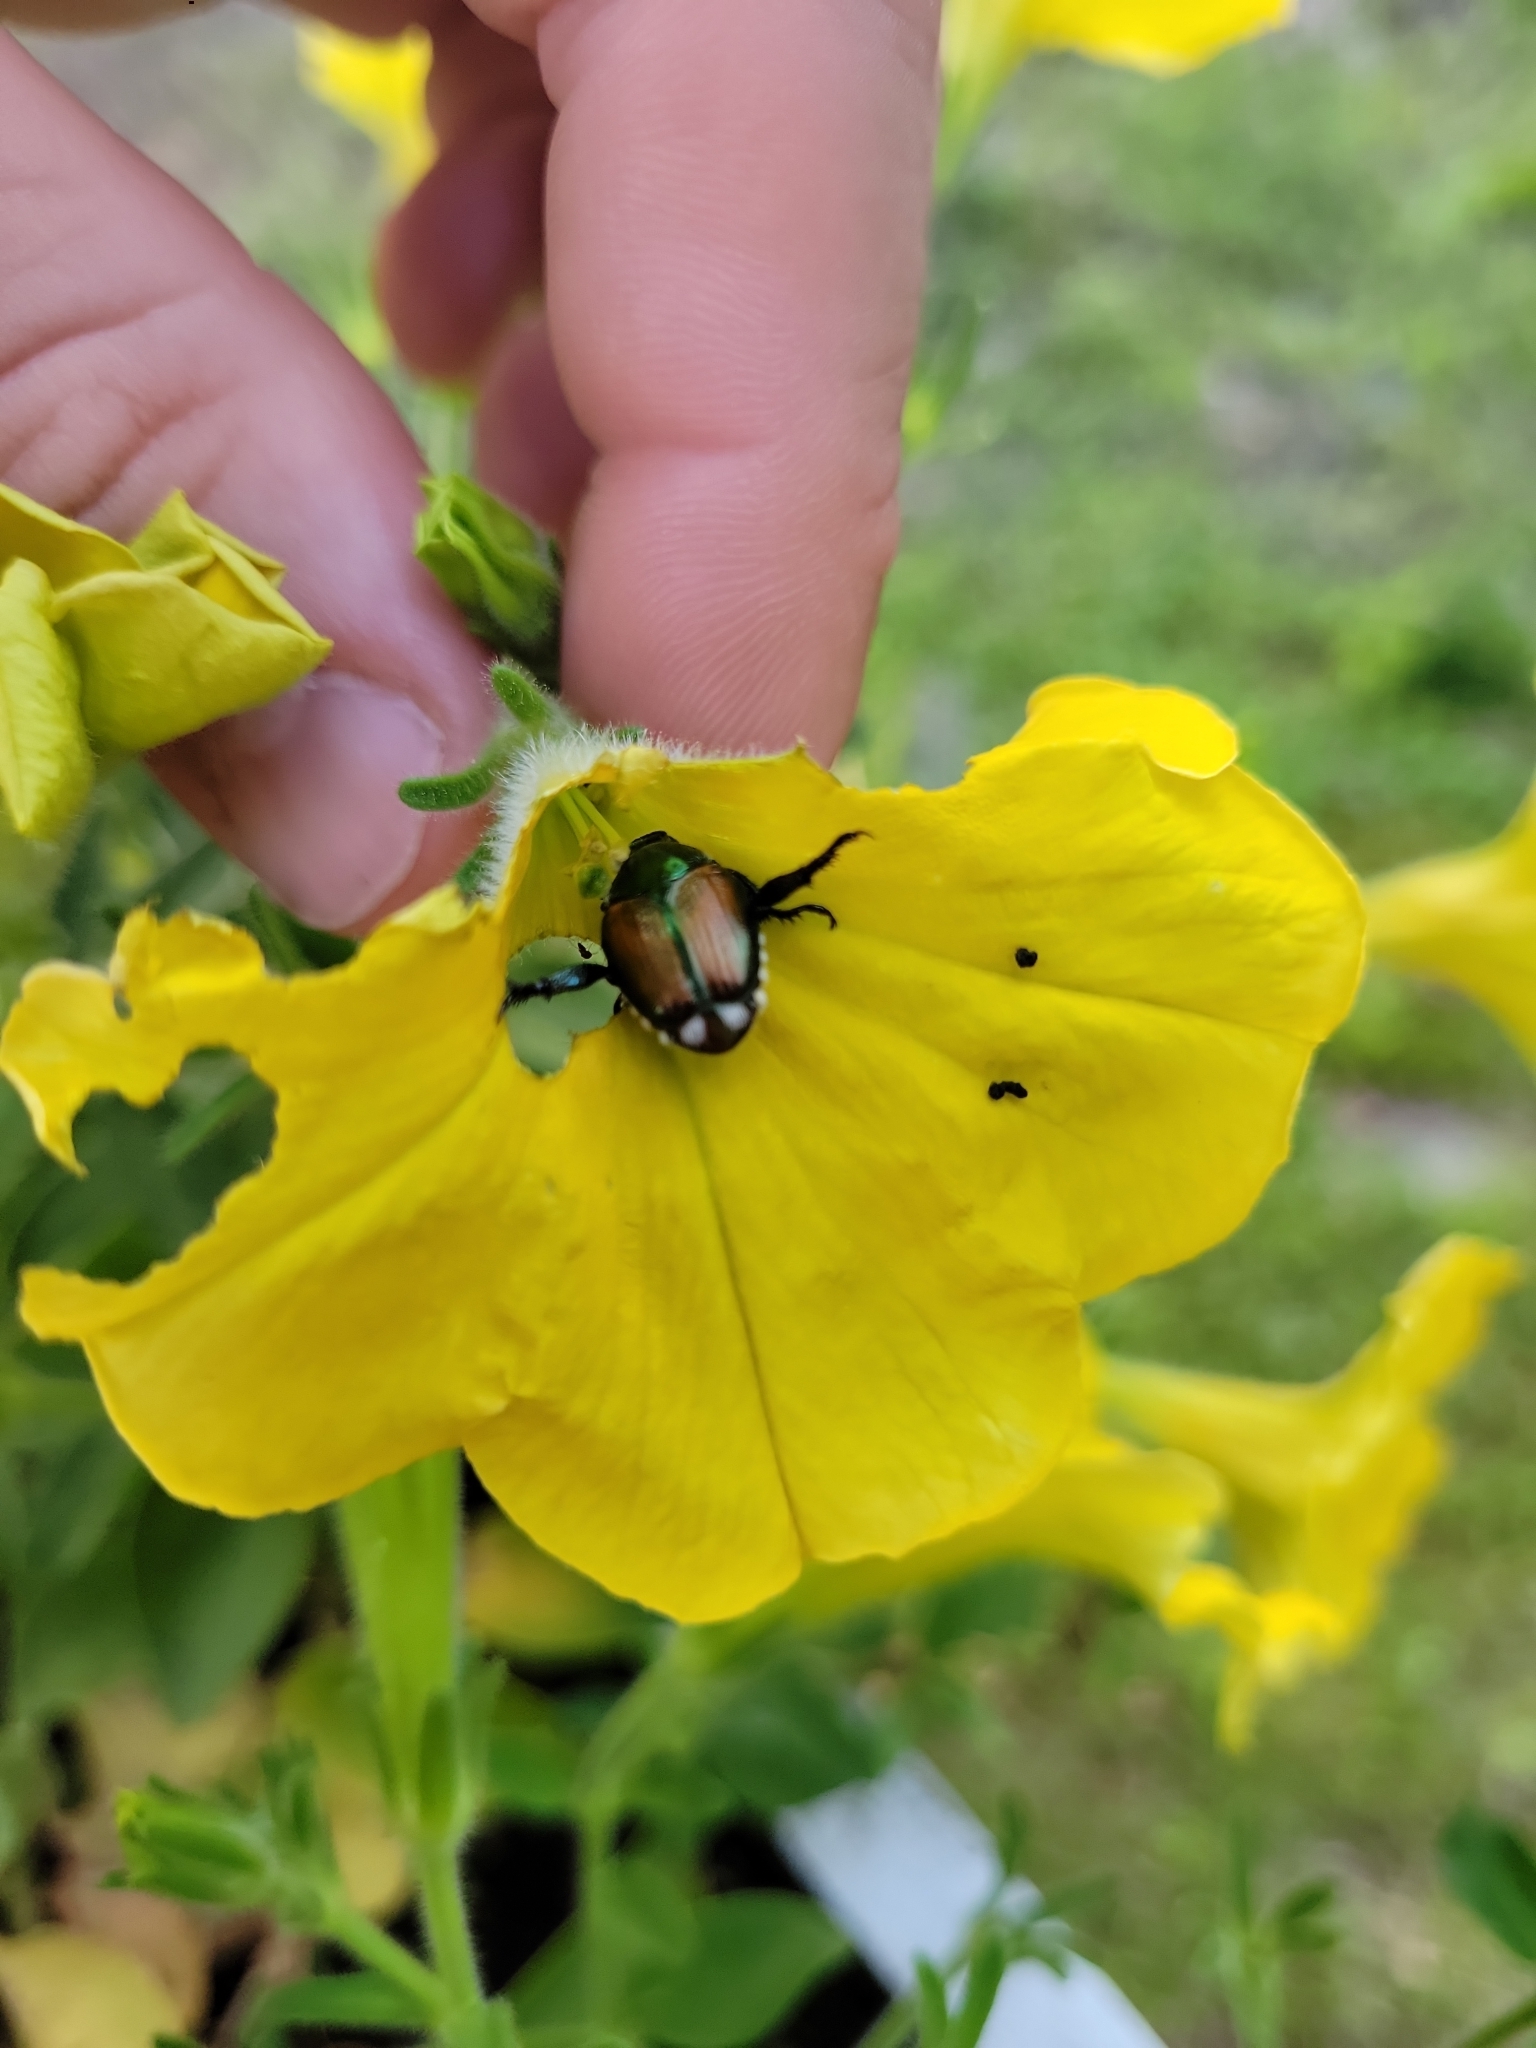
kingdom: Animalia
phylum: Arthropoda
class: Insecta
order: Coleoptera
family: Scarabaeidae
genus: Popillia
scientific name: Popillia japonica
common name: Japanese beetle
